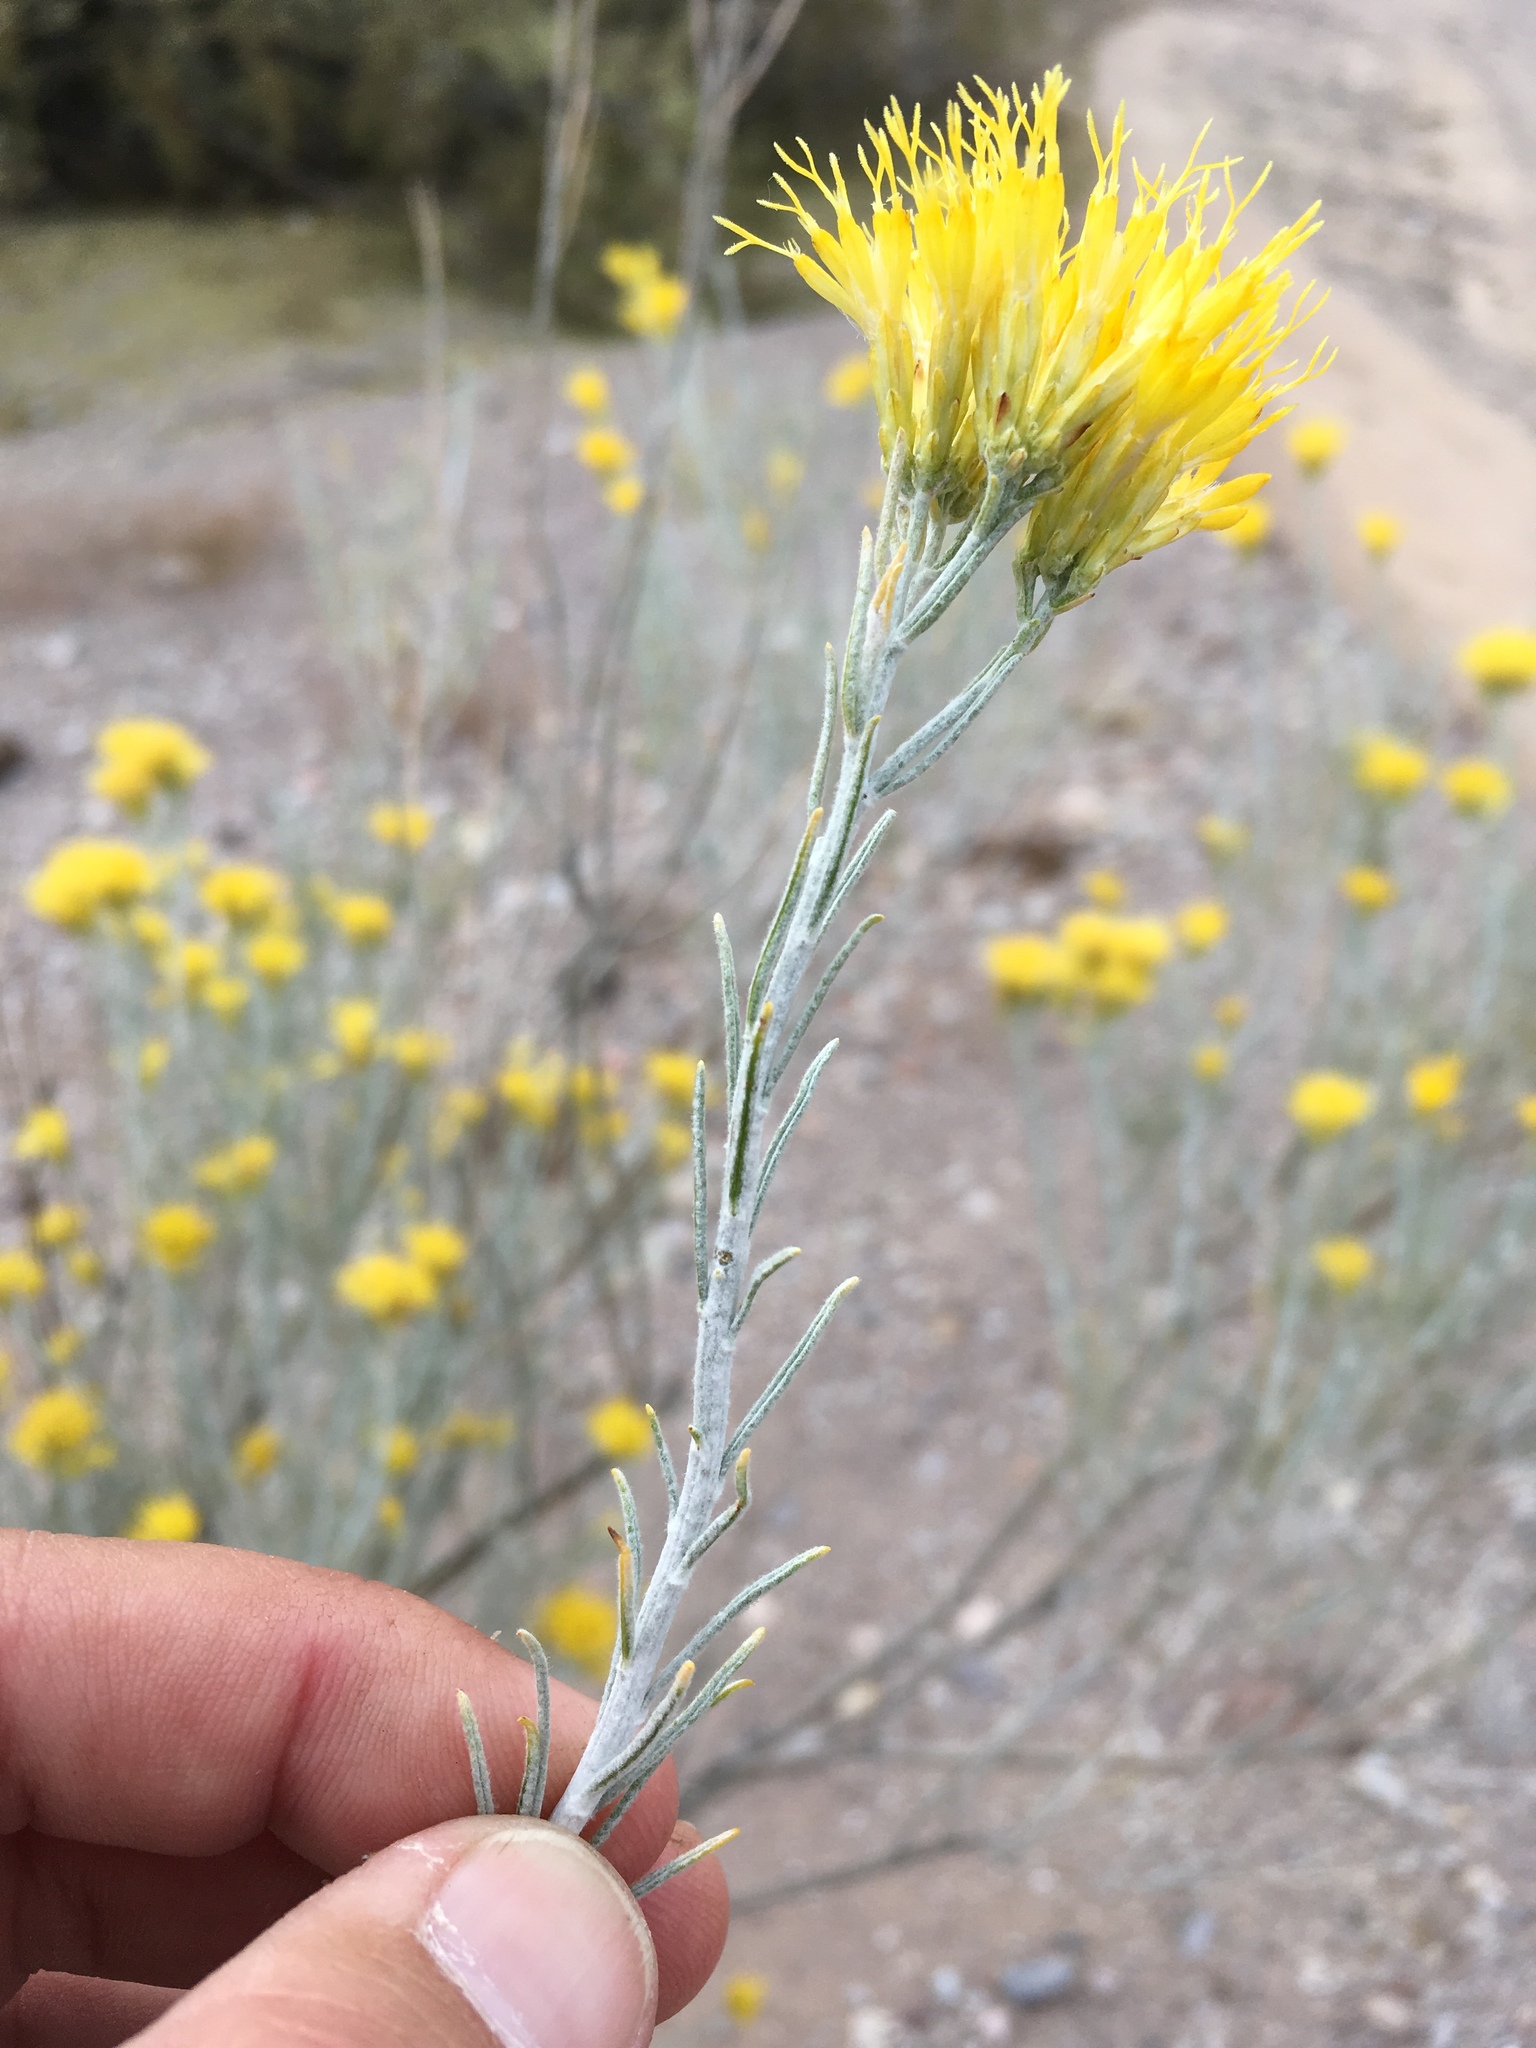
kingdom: Plantae
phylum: Tracheophyta
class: Magnoliopsida
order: Asterales
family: Asteraceae
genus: Ericameria
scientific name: Ericameria nauseosa
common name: Rubber rabbitbrush
